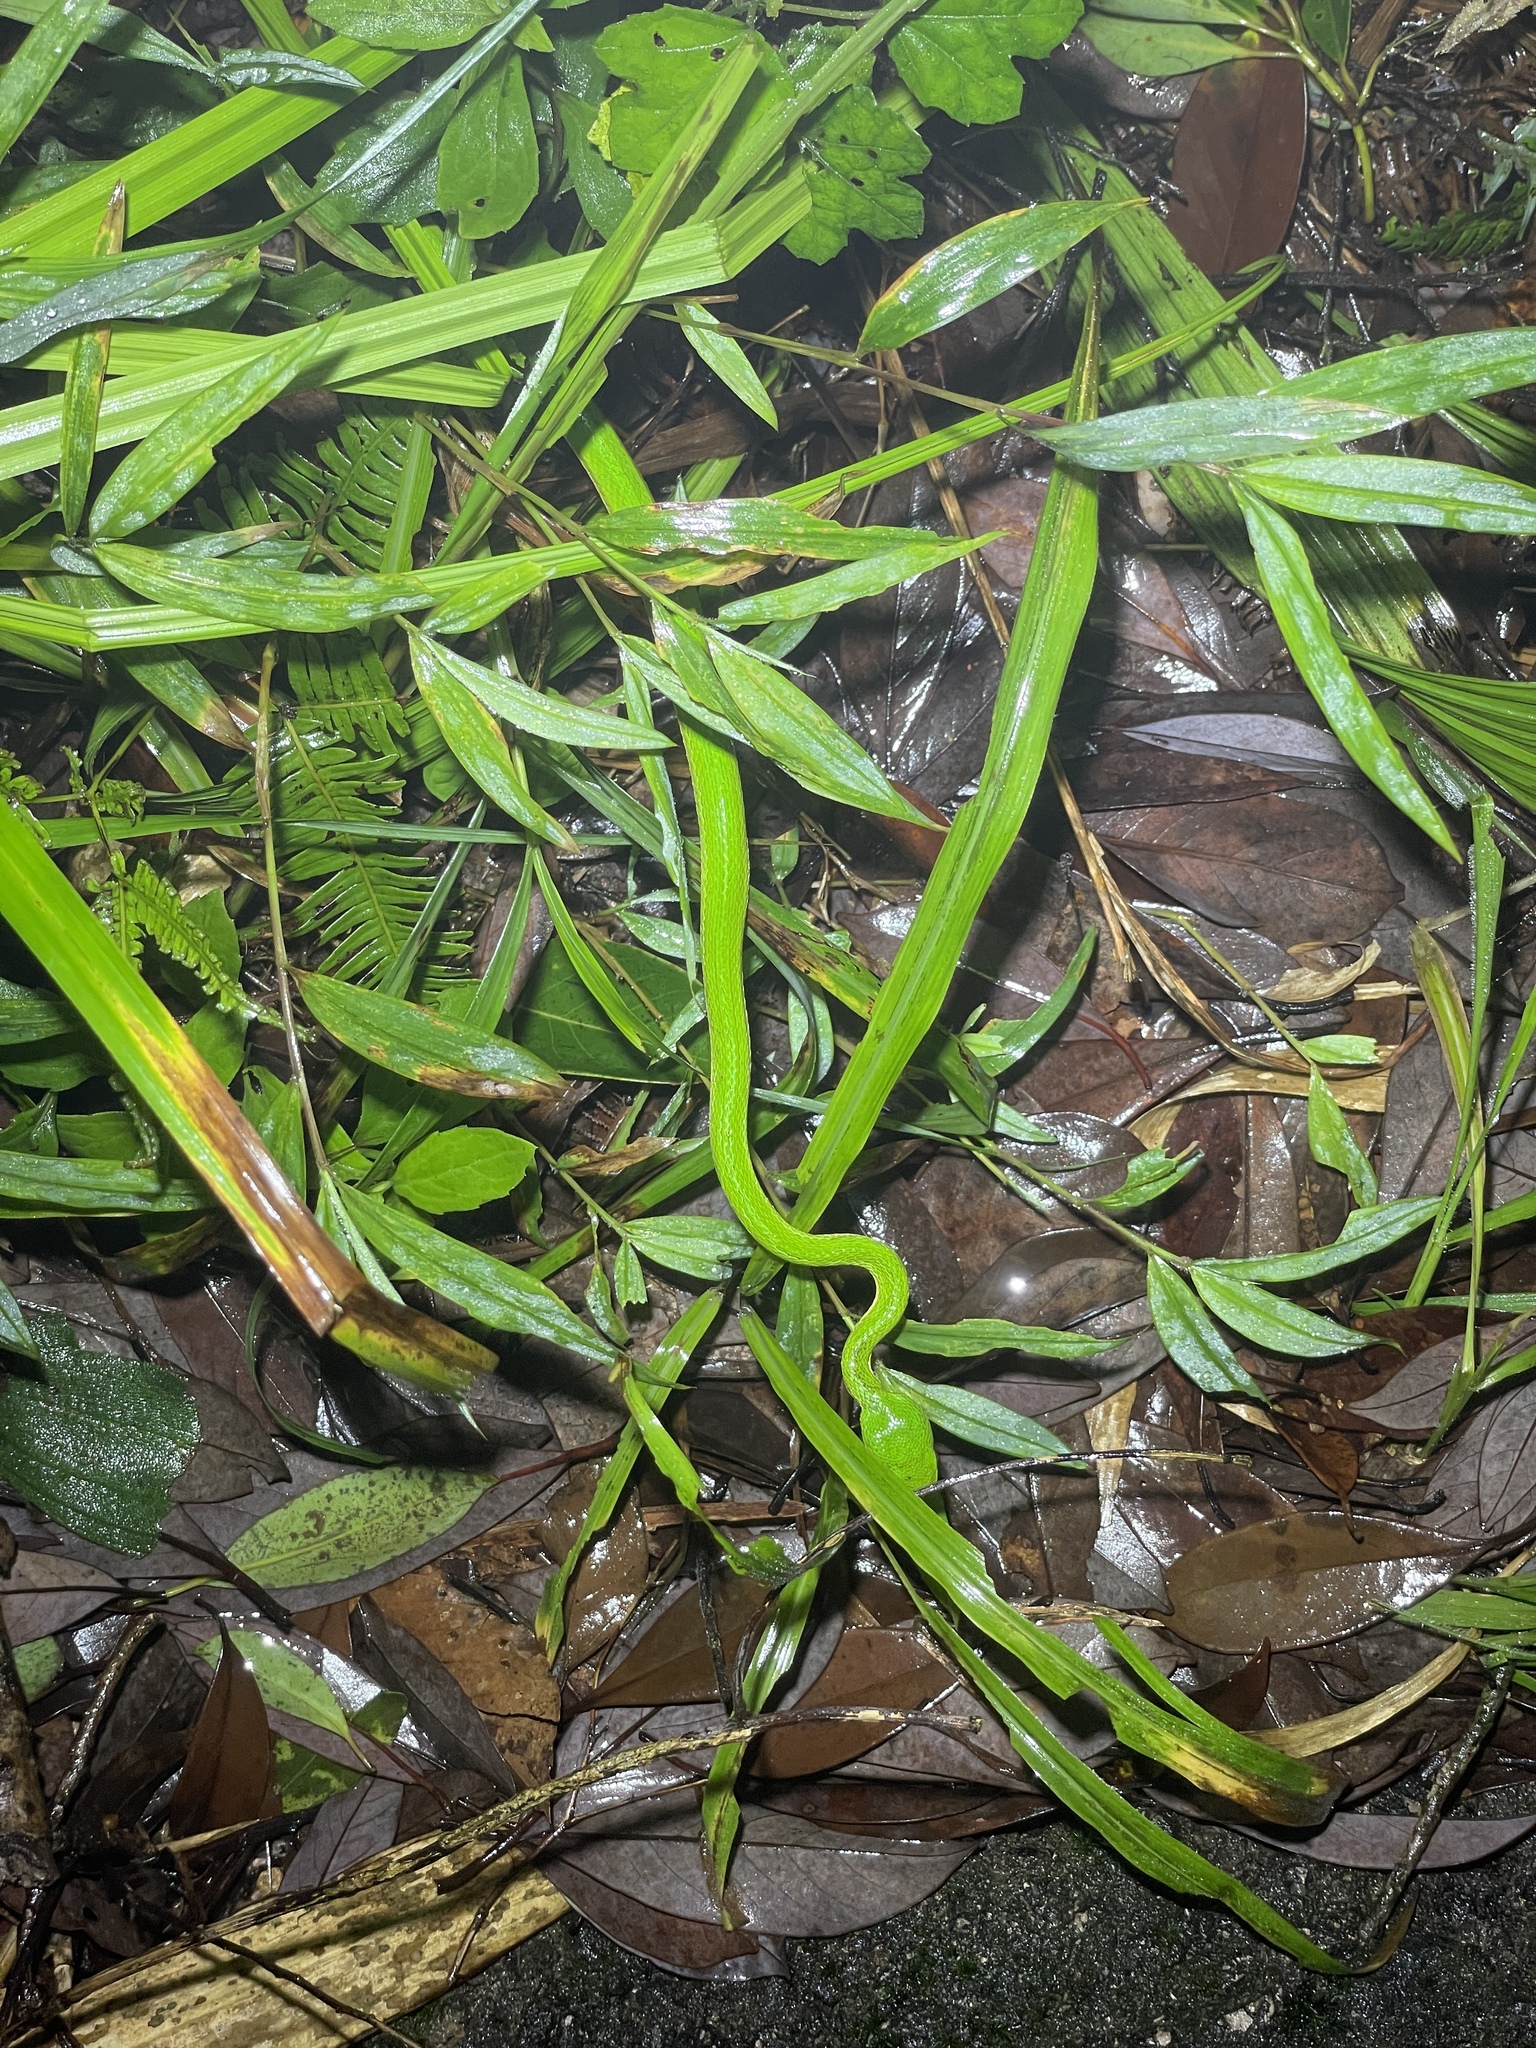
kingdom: Animalia
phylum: Chordata
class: Squamata
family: Viperidae
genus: Trimeresurus
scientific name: Trimeresurus albolabris
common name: White-lipped pitviper
